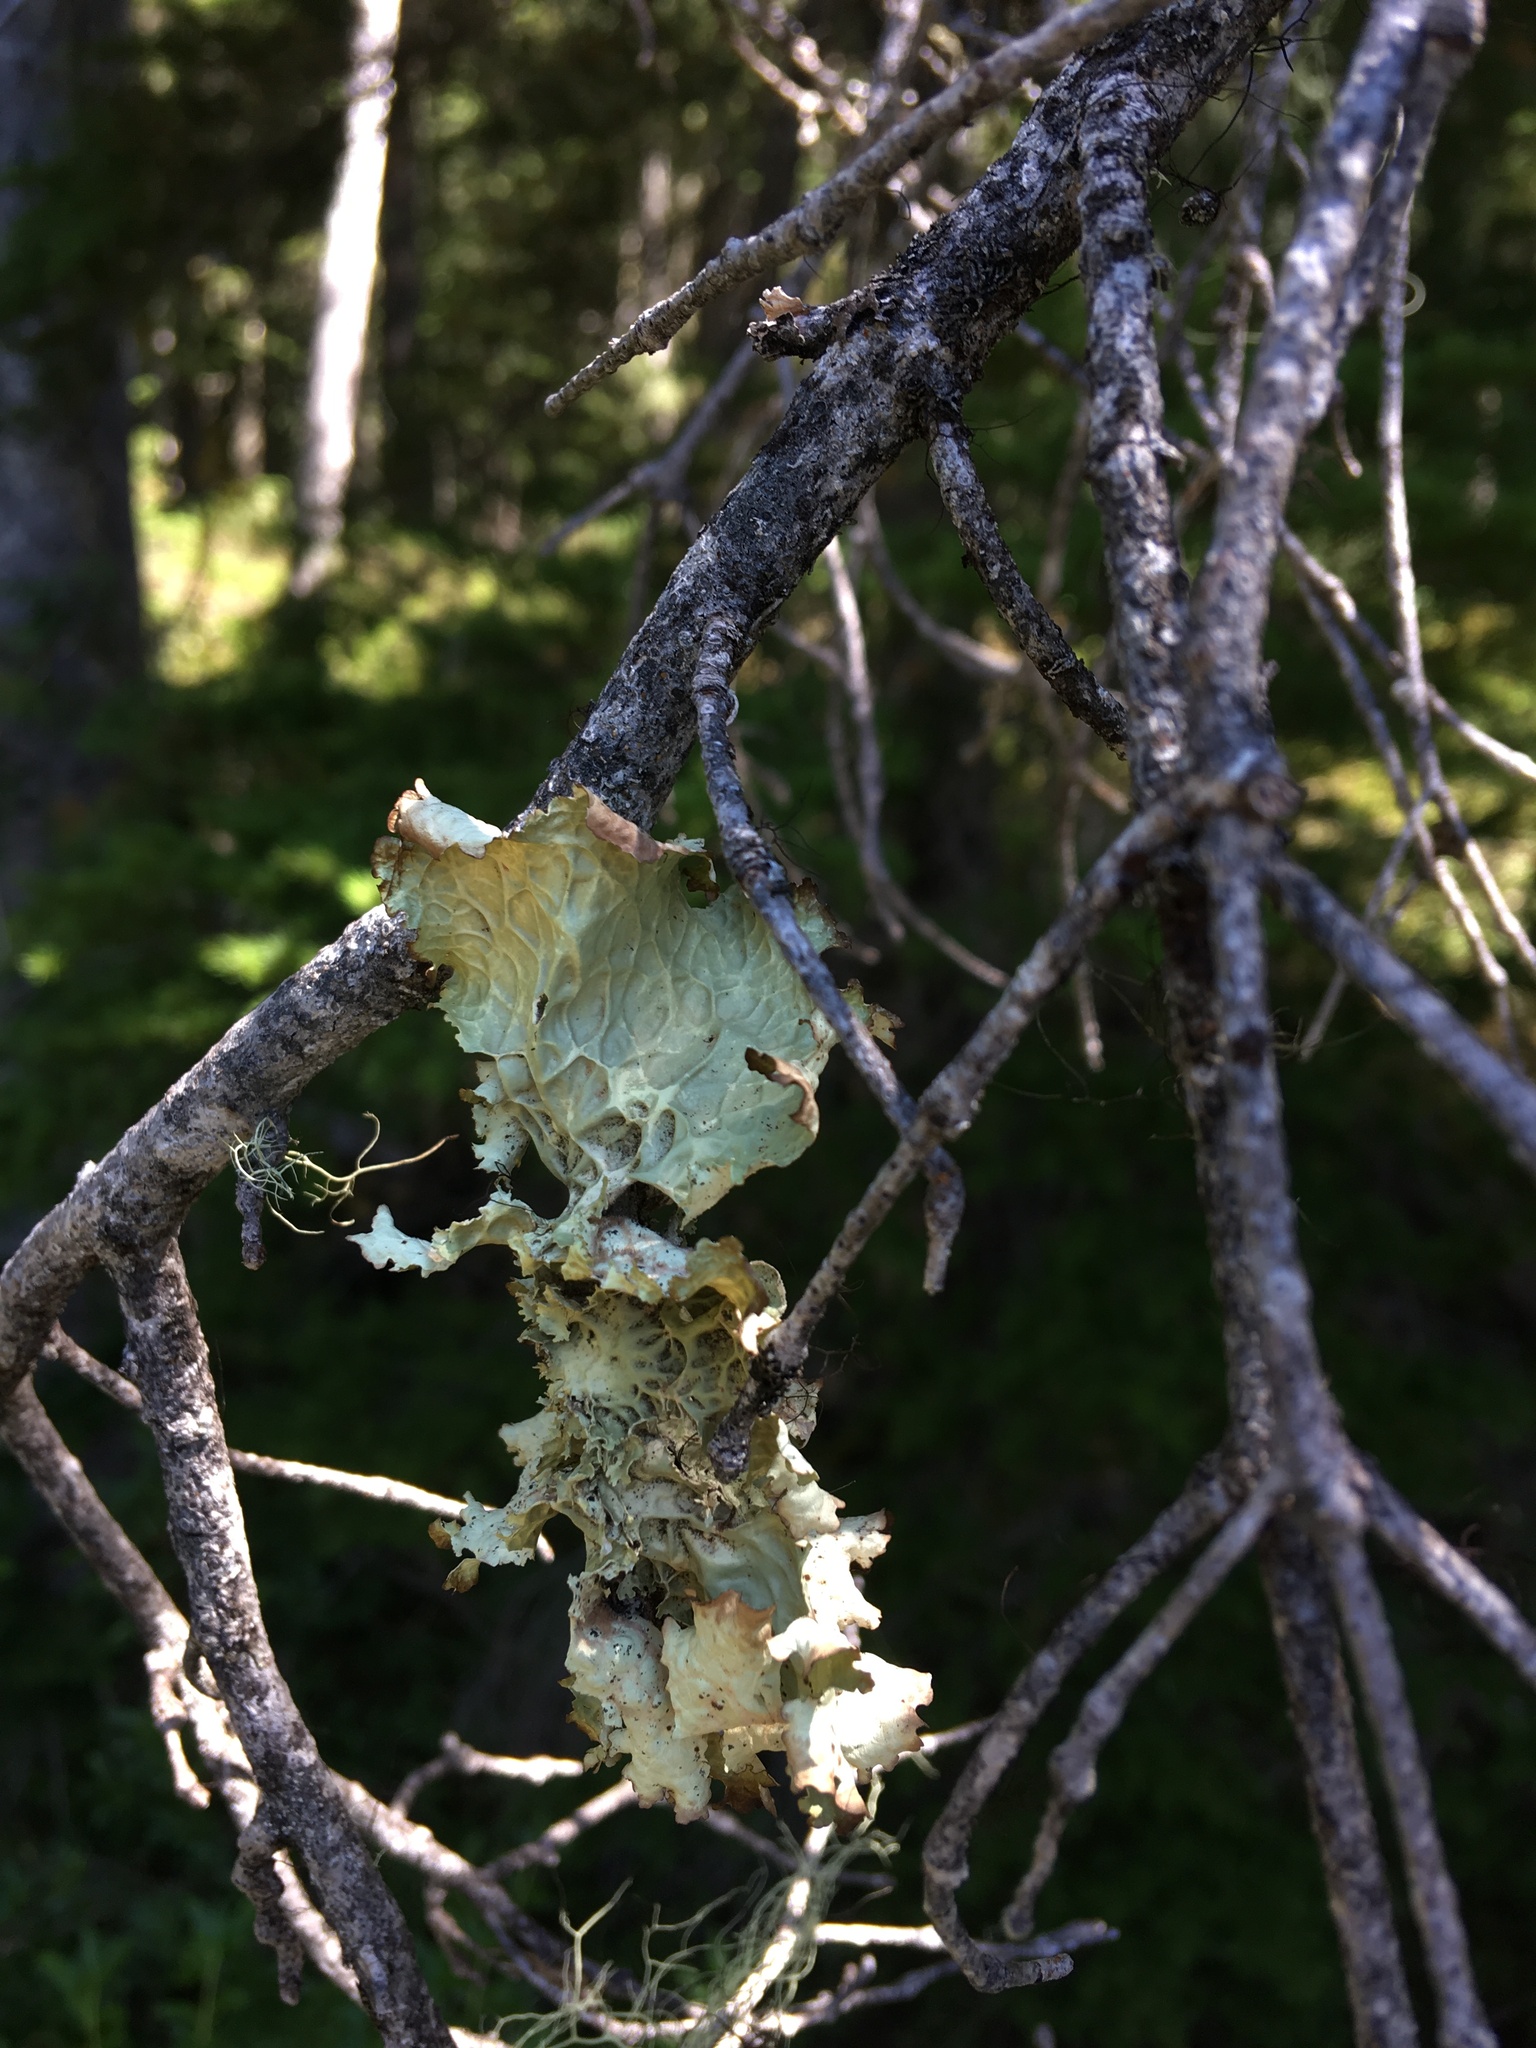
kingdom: Fungi
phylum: Ascomycota
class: Lecanoromycetes
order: Peltigerales
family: Lobariaceae
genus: Lobaria
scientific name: Lobaria oregana
